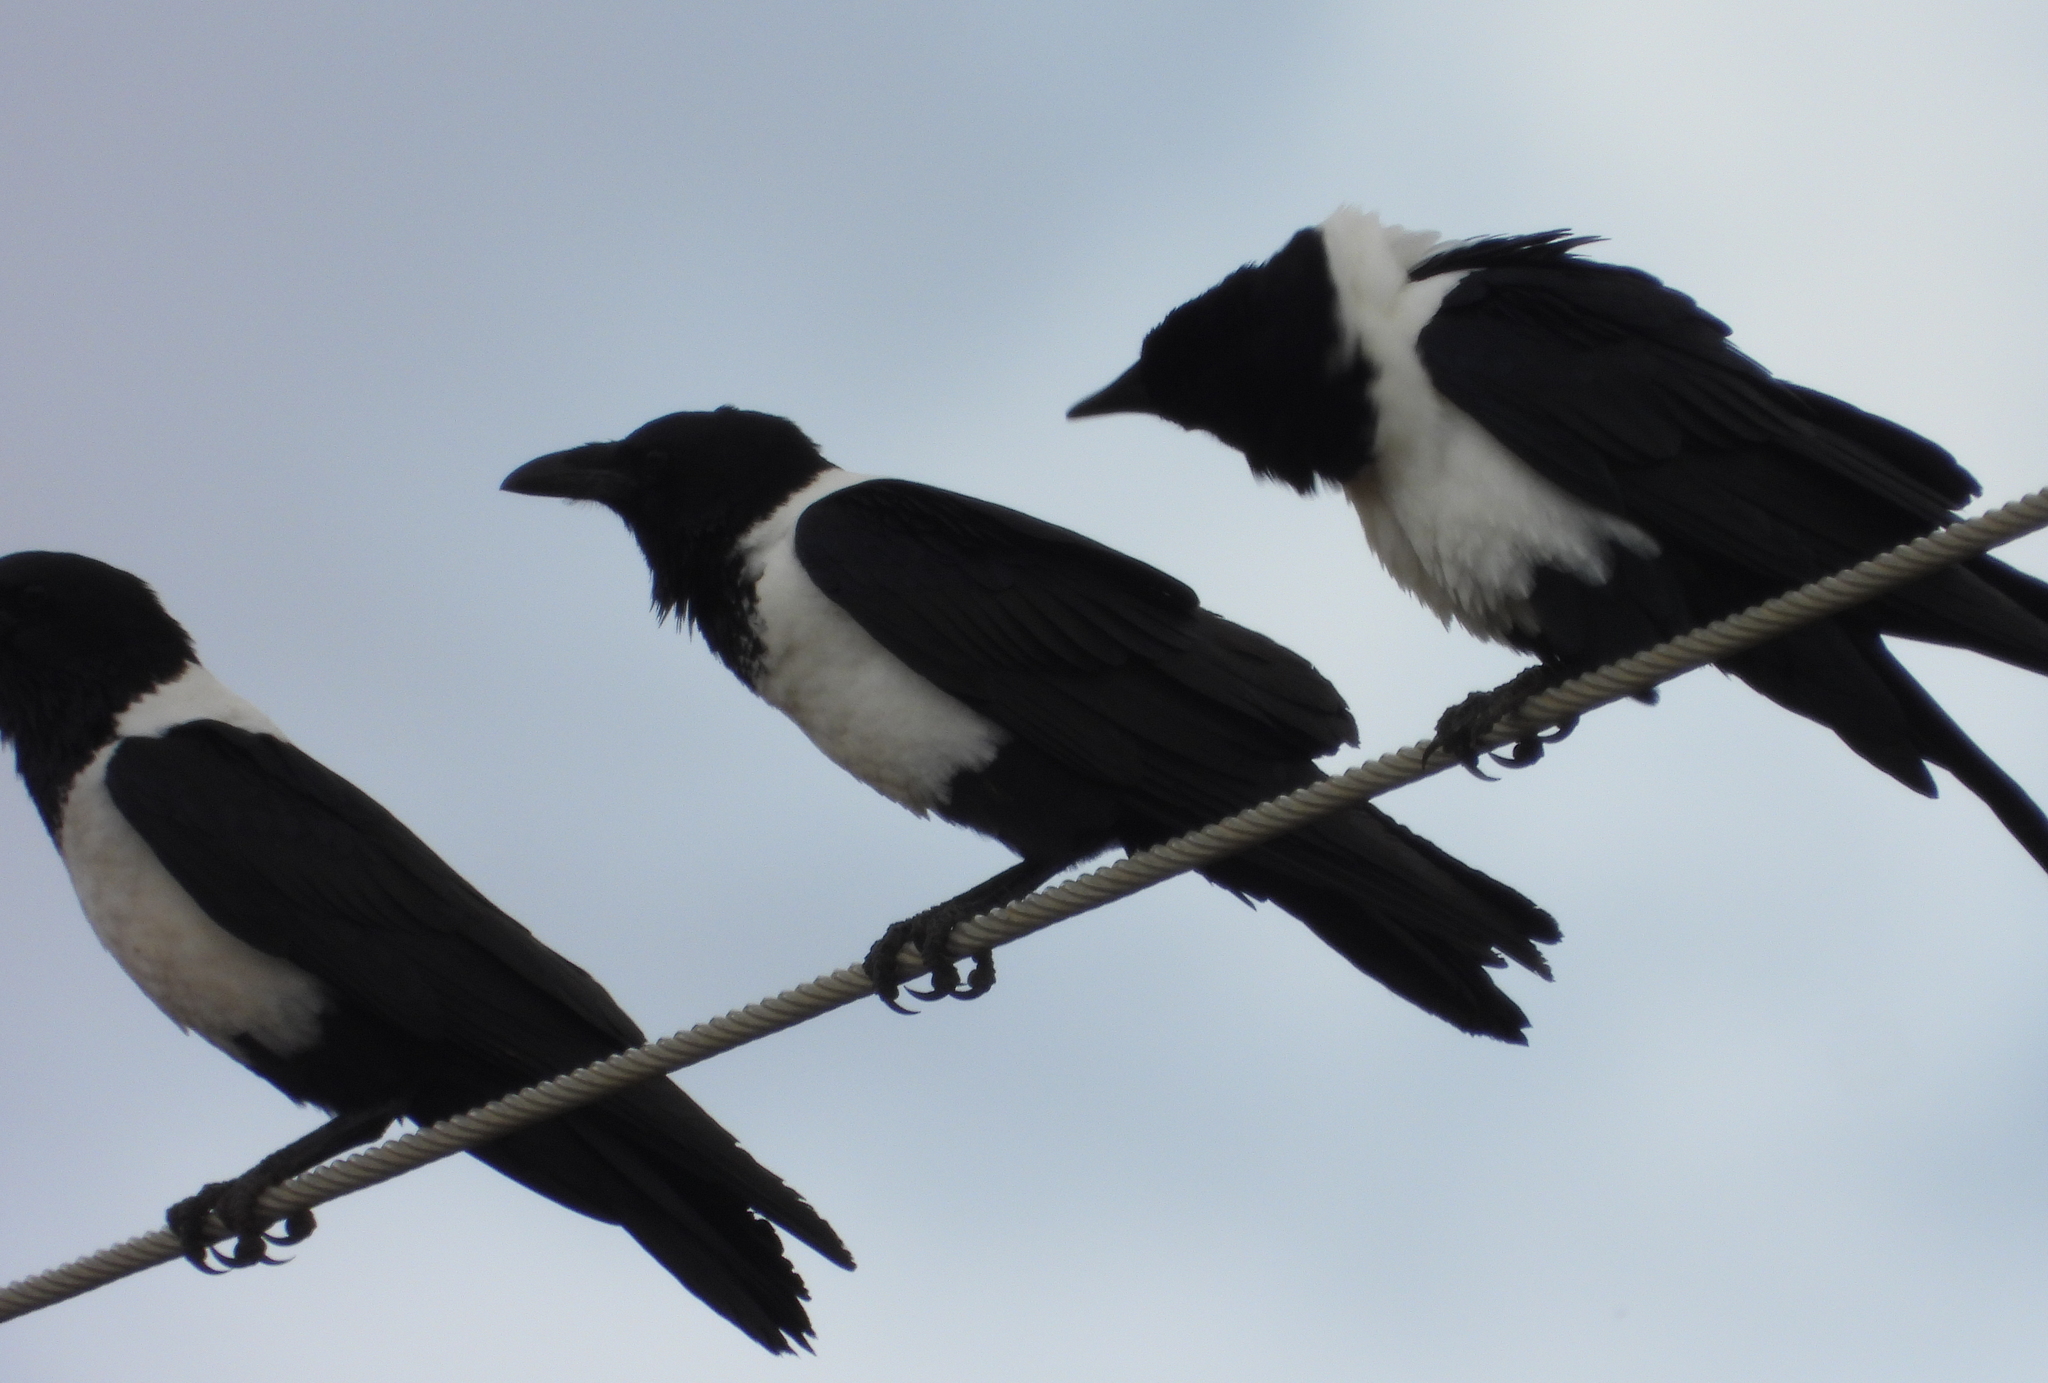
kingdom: Animalia
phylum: Chordata
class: Aves
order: Passeriformes
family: Corvidae
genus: Corvus
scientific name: Corvus albus
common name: Pied crow
